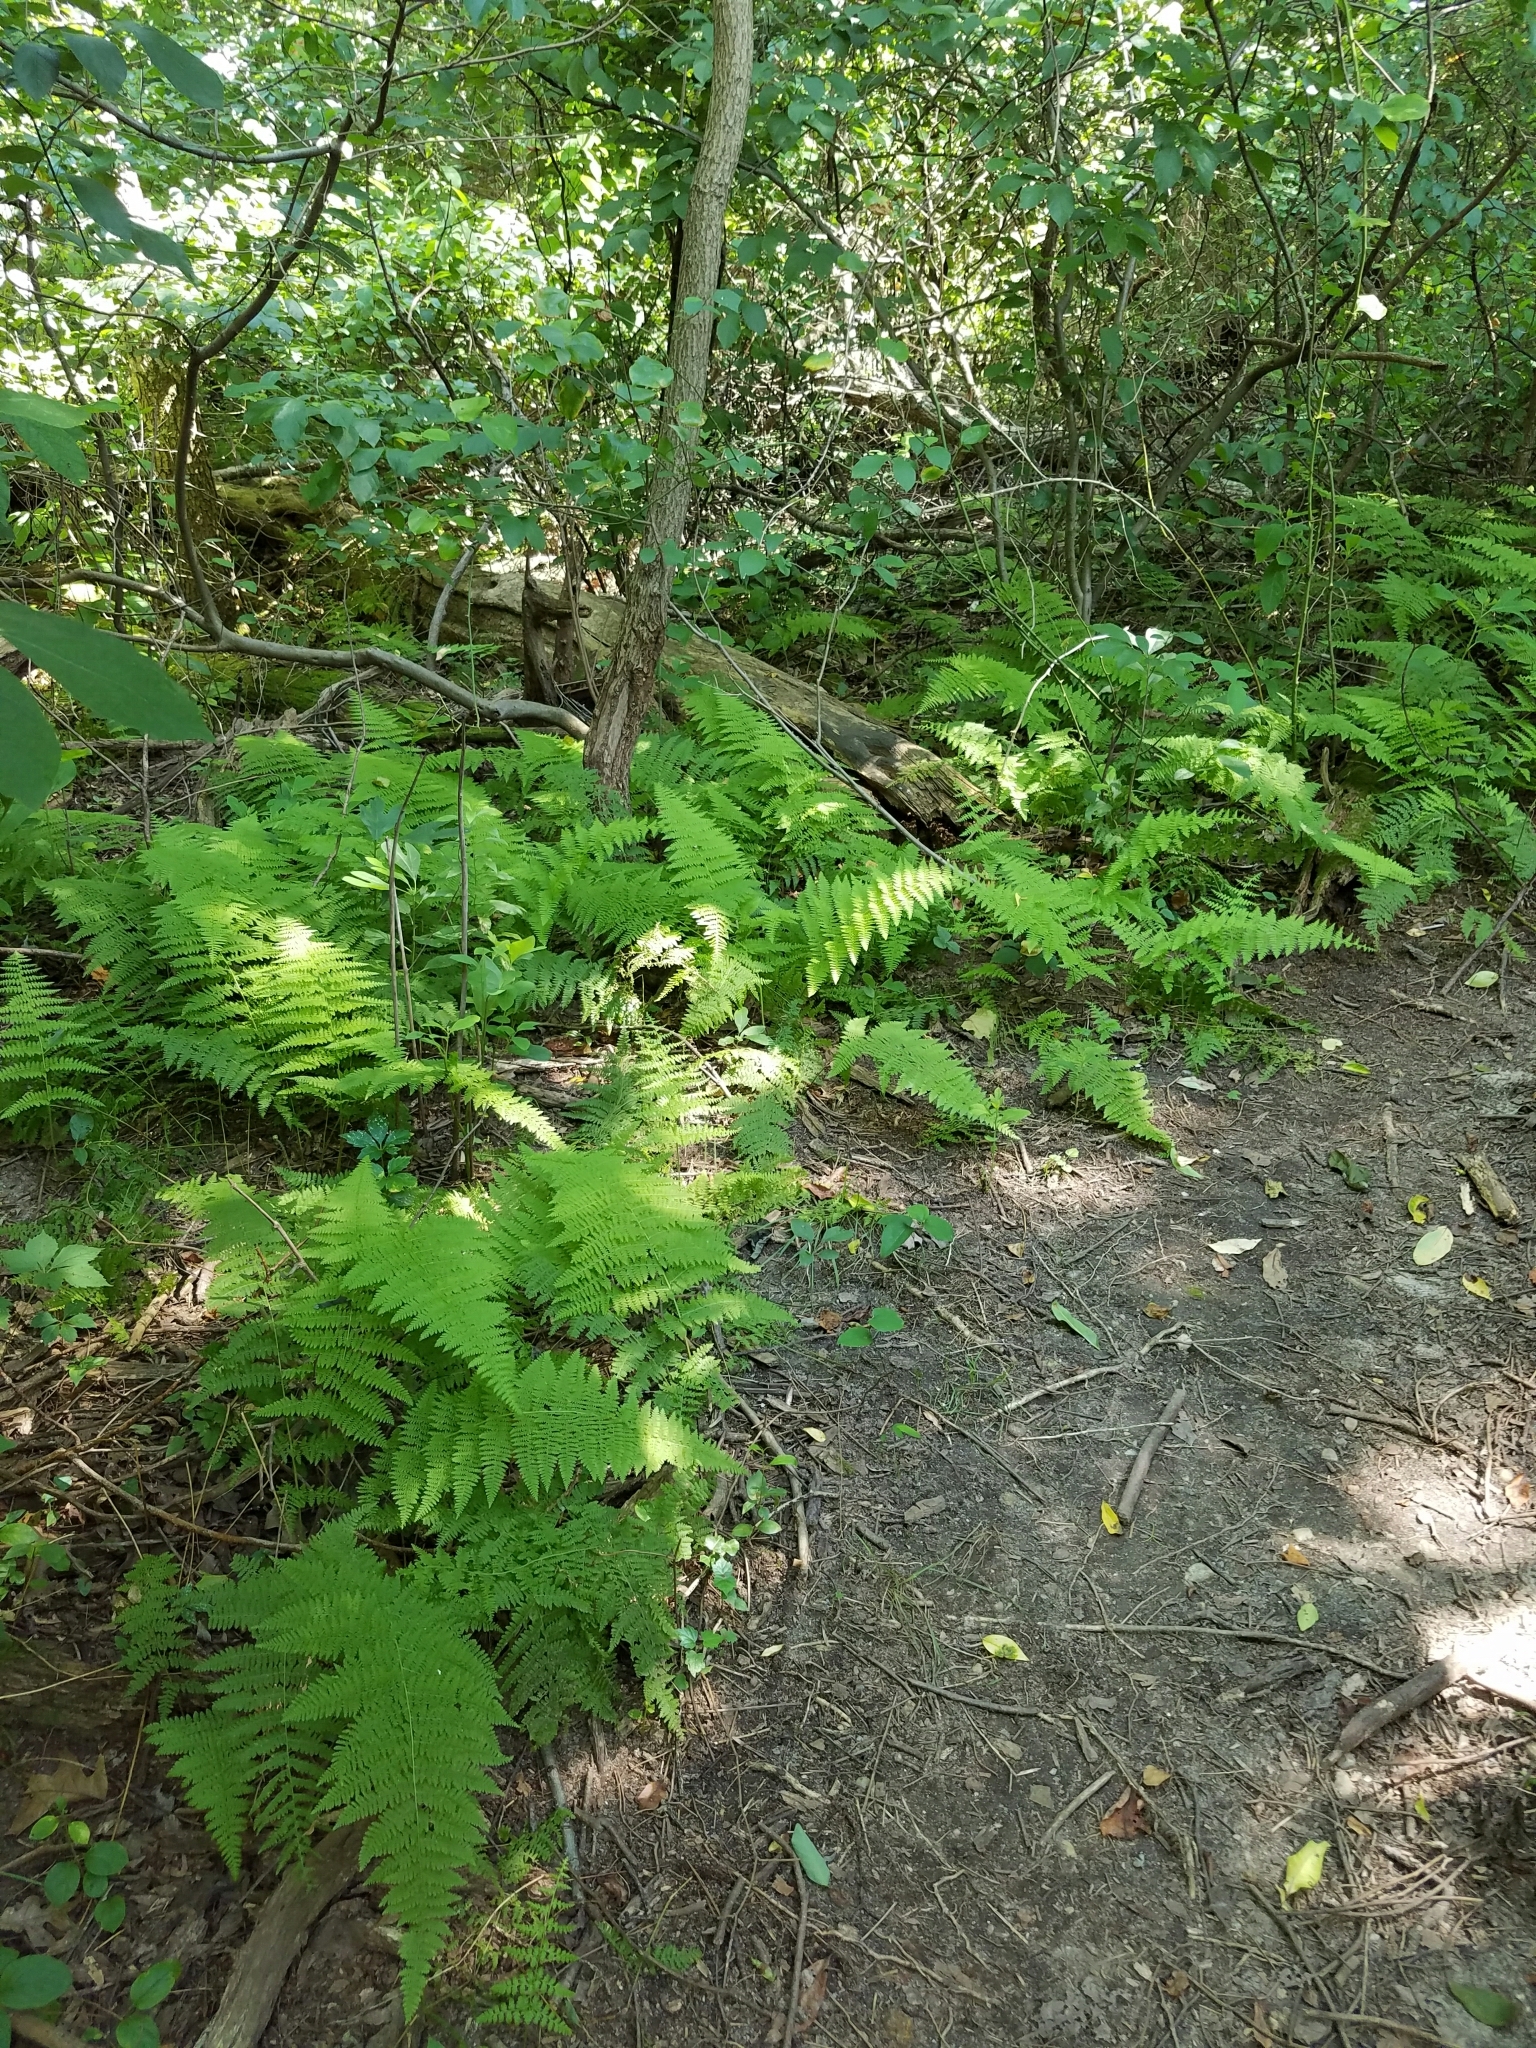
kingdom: Plantae
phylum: Tracheophyta
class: Polypodiopsida
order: Polypodiales
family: Dennstaedtiaceae
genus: Sitobolium
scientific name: Sitobolium punctilobum
